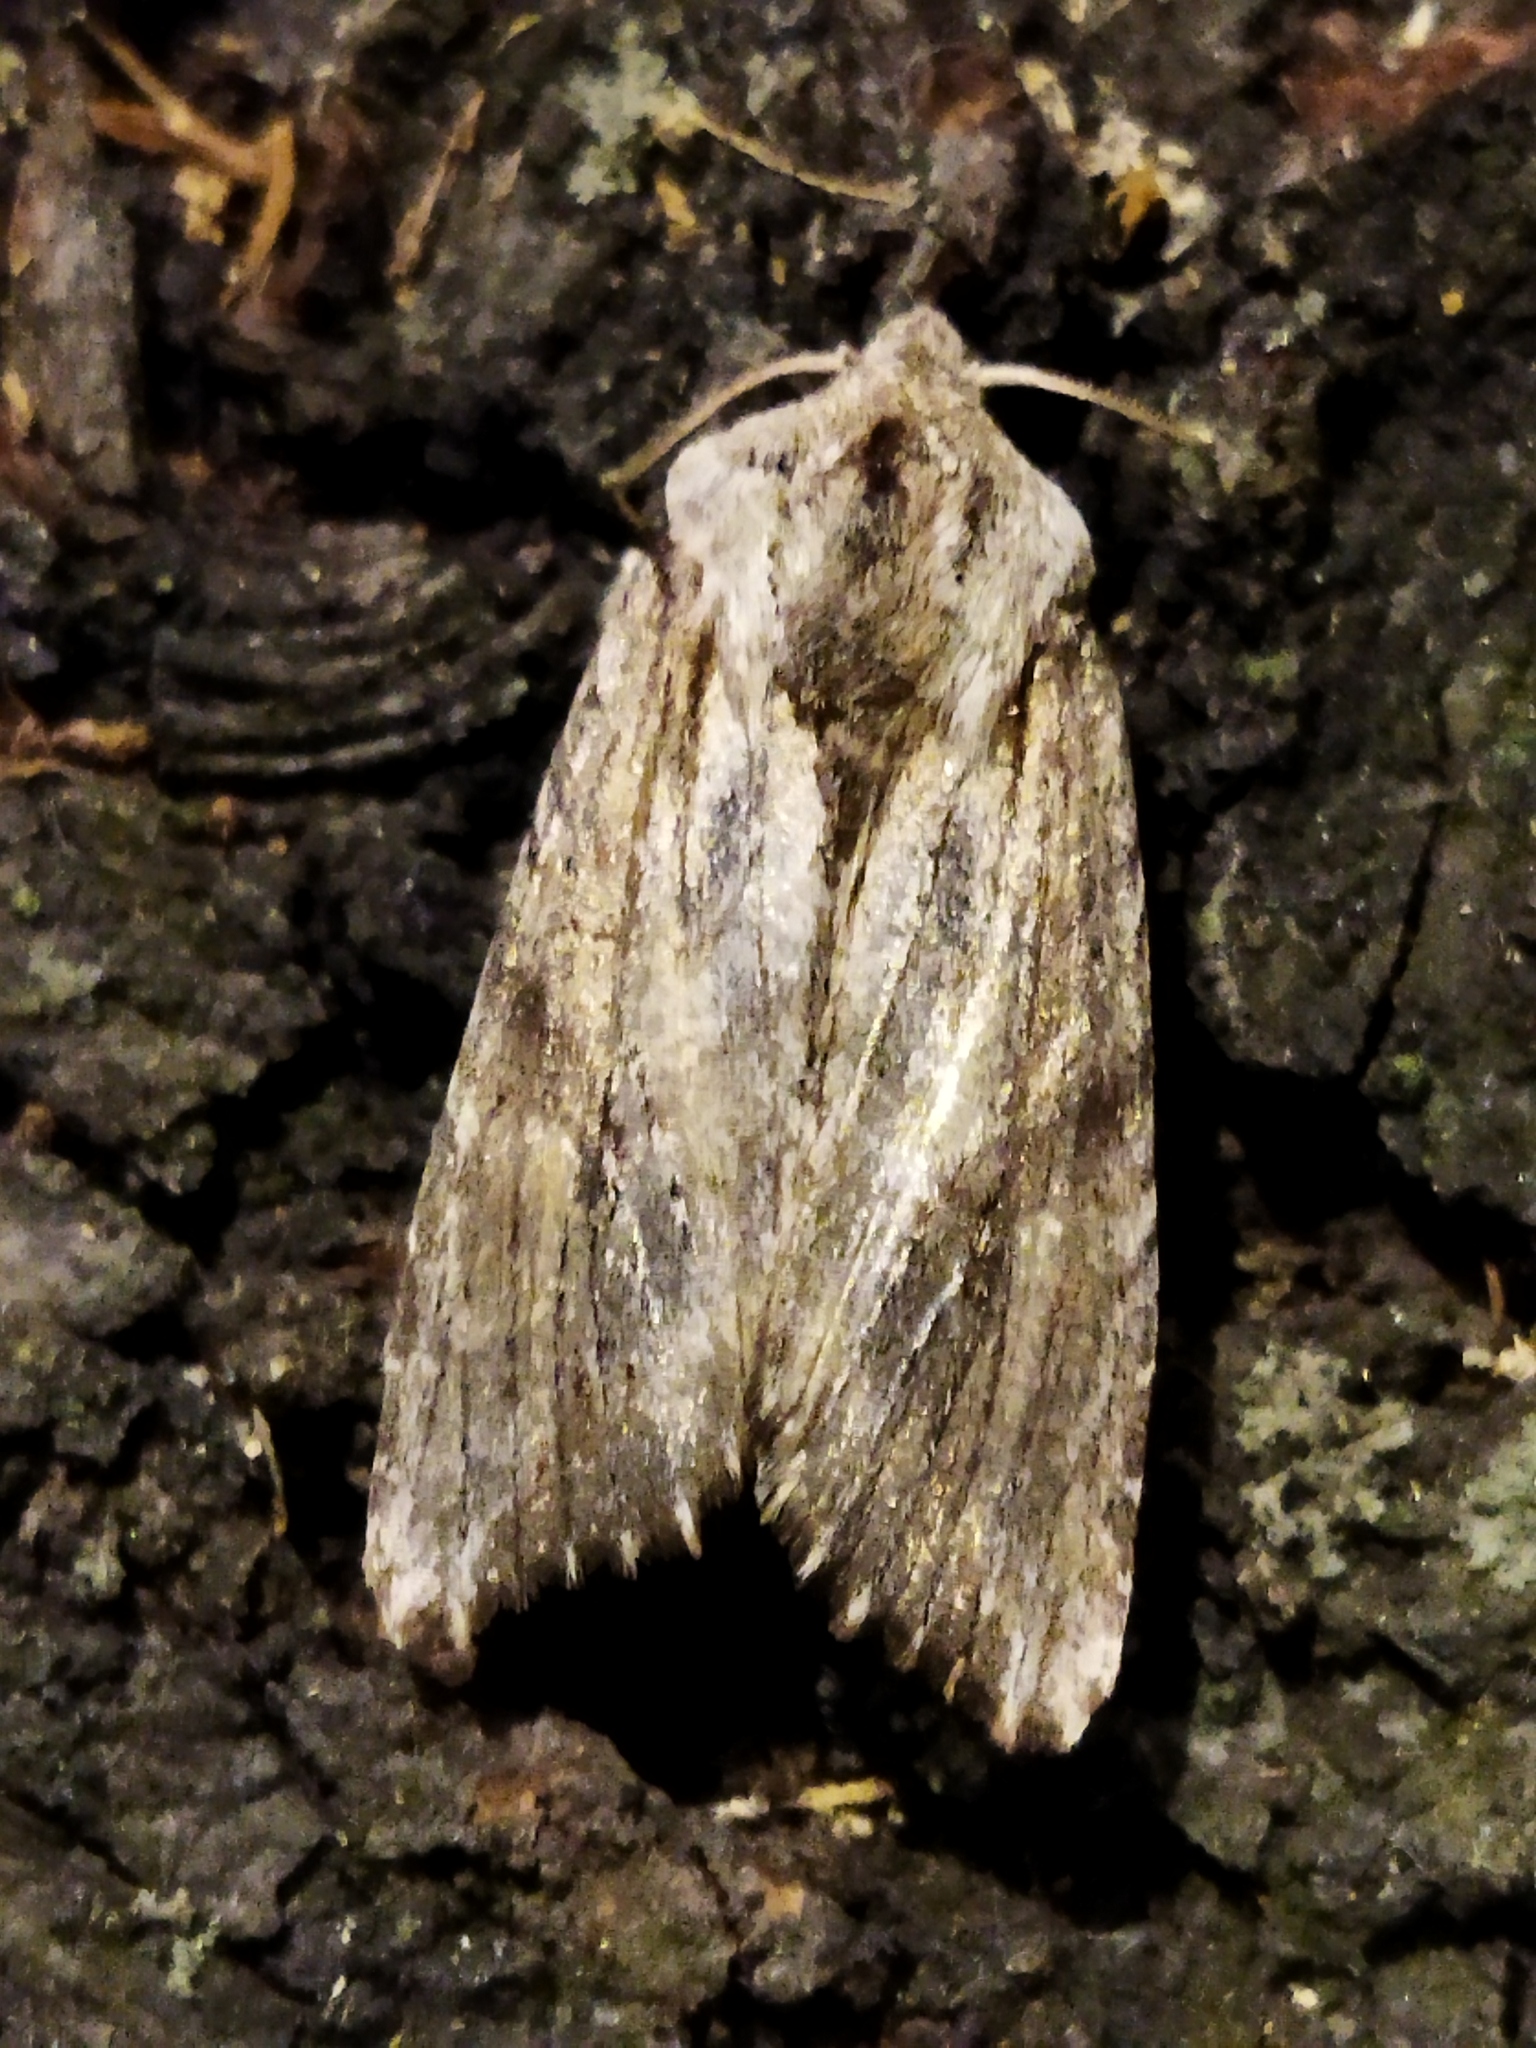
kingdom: Animalia
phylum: Arthropoda
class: Insecta
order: Lepidoptera
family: Noctuidae
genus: Egira
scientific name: Egira
